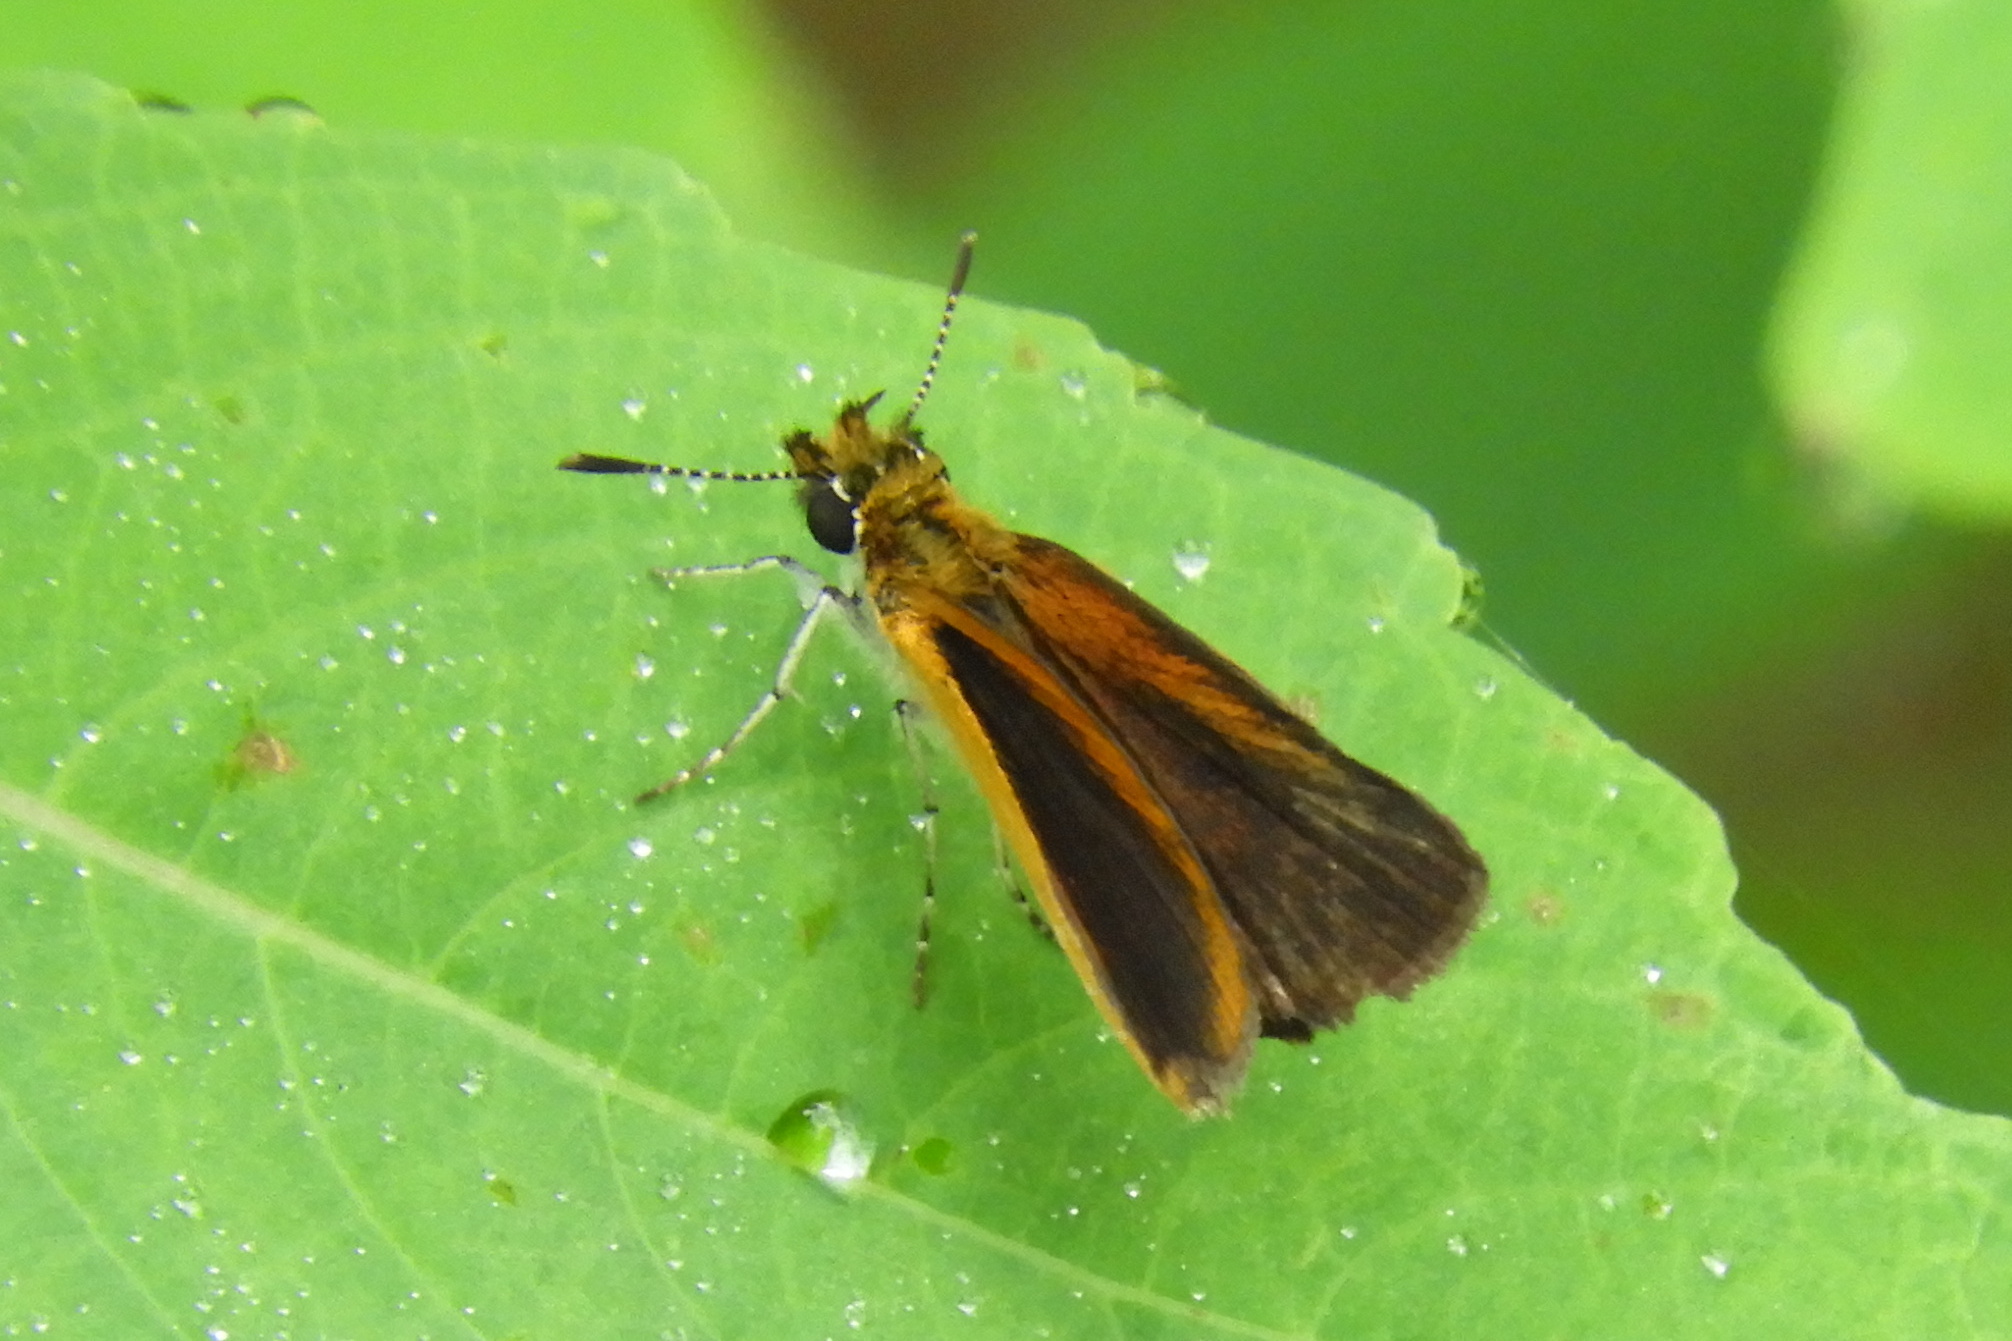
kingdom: Animalia
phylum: Arthropoda
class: Insecta
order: Lepidoptera
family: Hesperiidae
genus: Ancyloxypha
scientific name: Ancyloxypha numitor
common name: Least skipper
